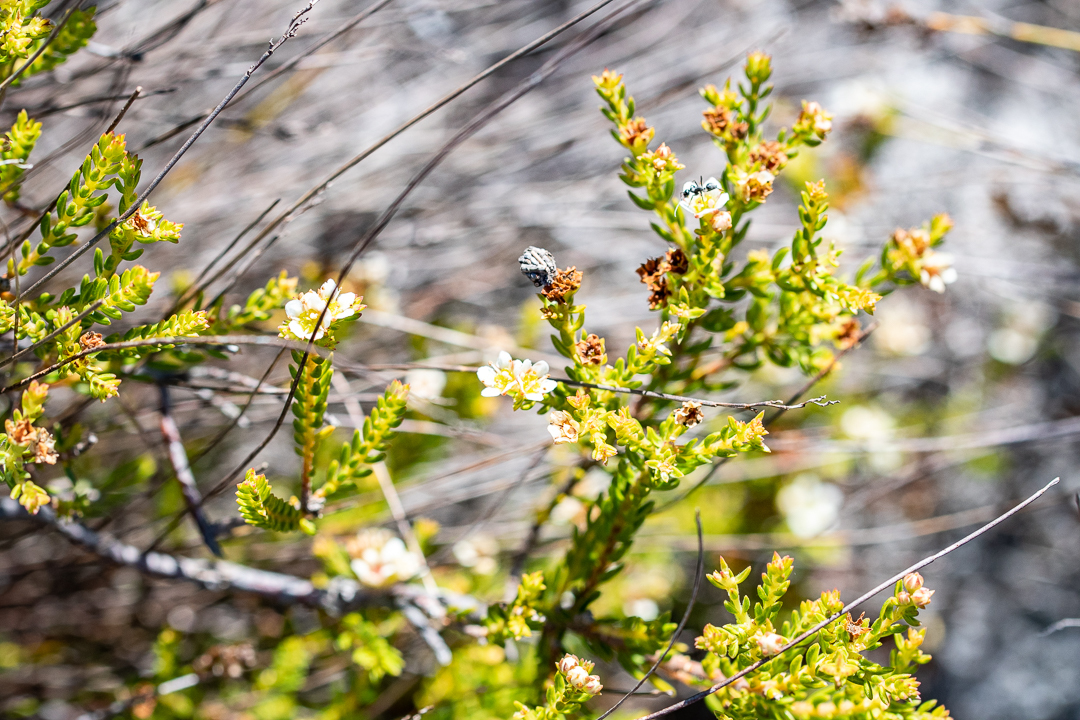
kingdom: Plantae
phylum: Tracheophyta
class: Magnoliopsida
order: Sapindales
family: Rutaceae
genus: Diosma
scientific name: Diosma oppositifolia
